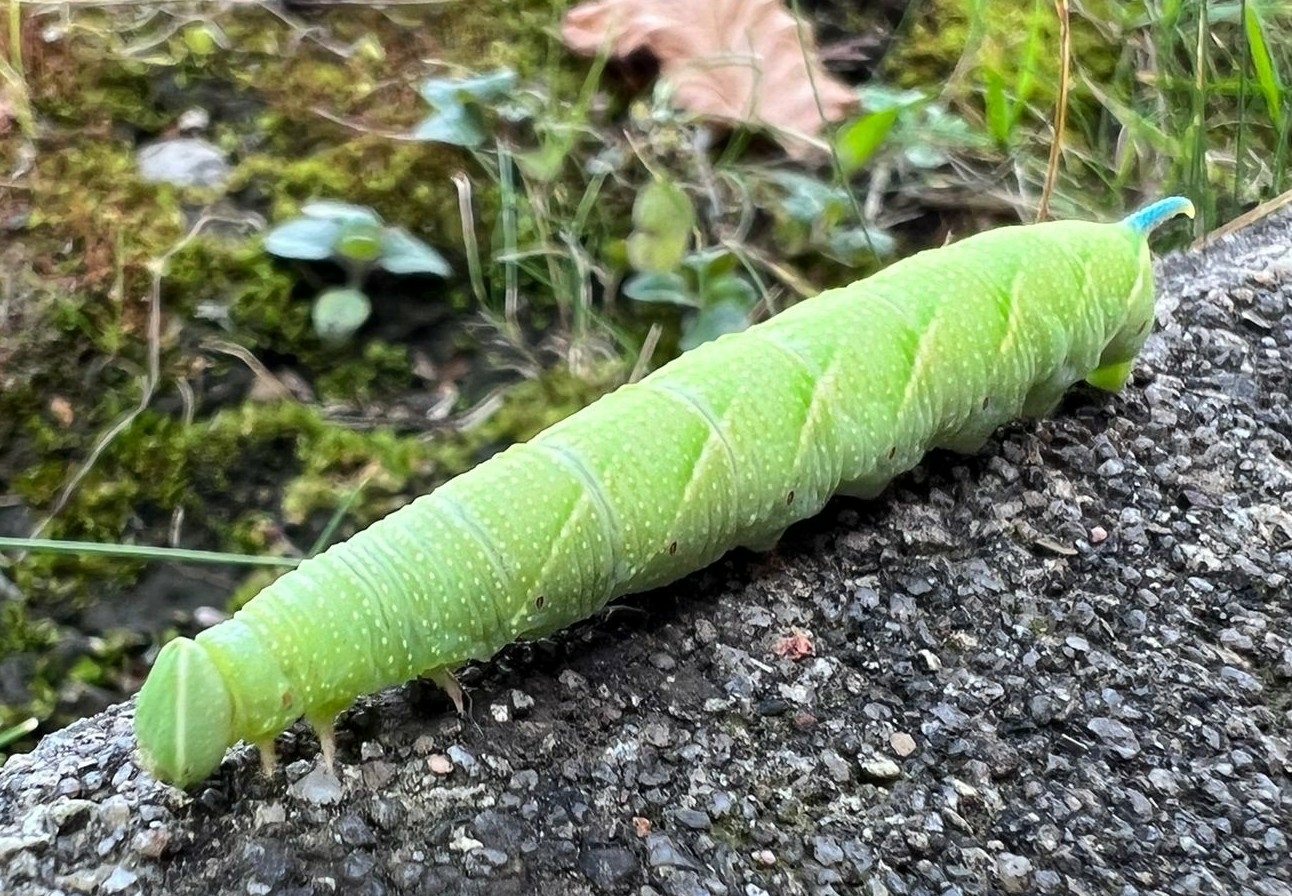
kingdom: Animalia
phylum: Arthropoda
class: Insecta
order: Lepidoptera
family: Sphingidae
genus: Mimas
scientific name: Mimas tiliae
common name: Lime hawk-moth
